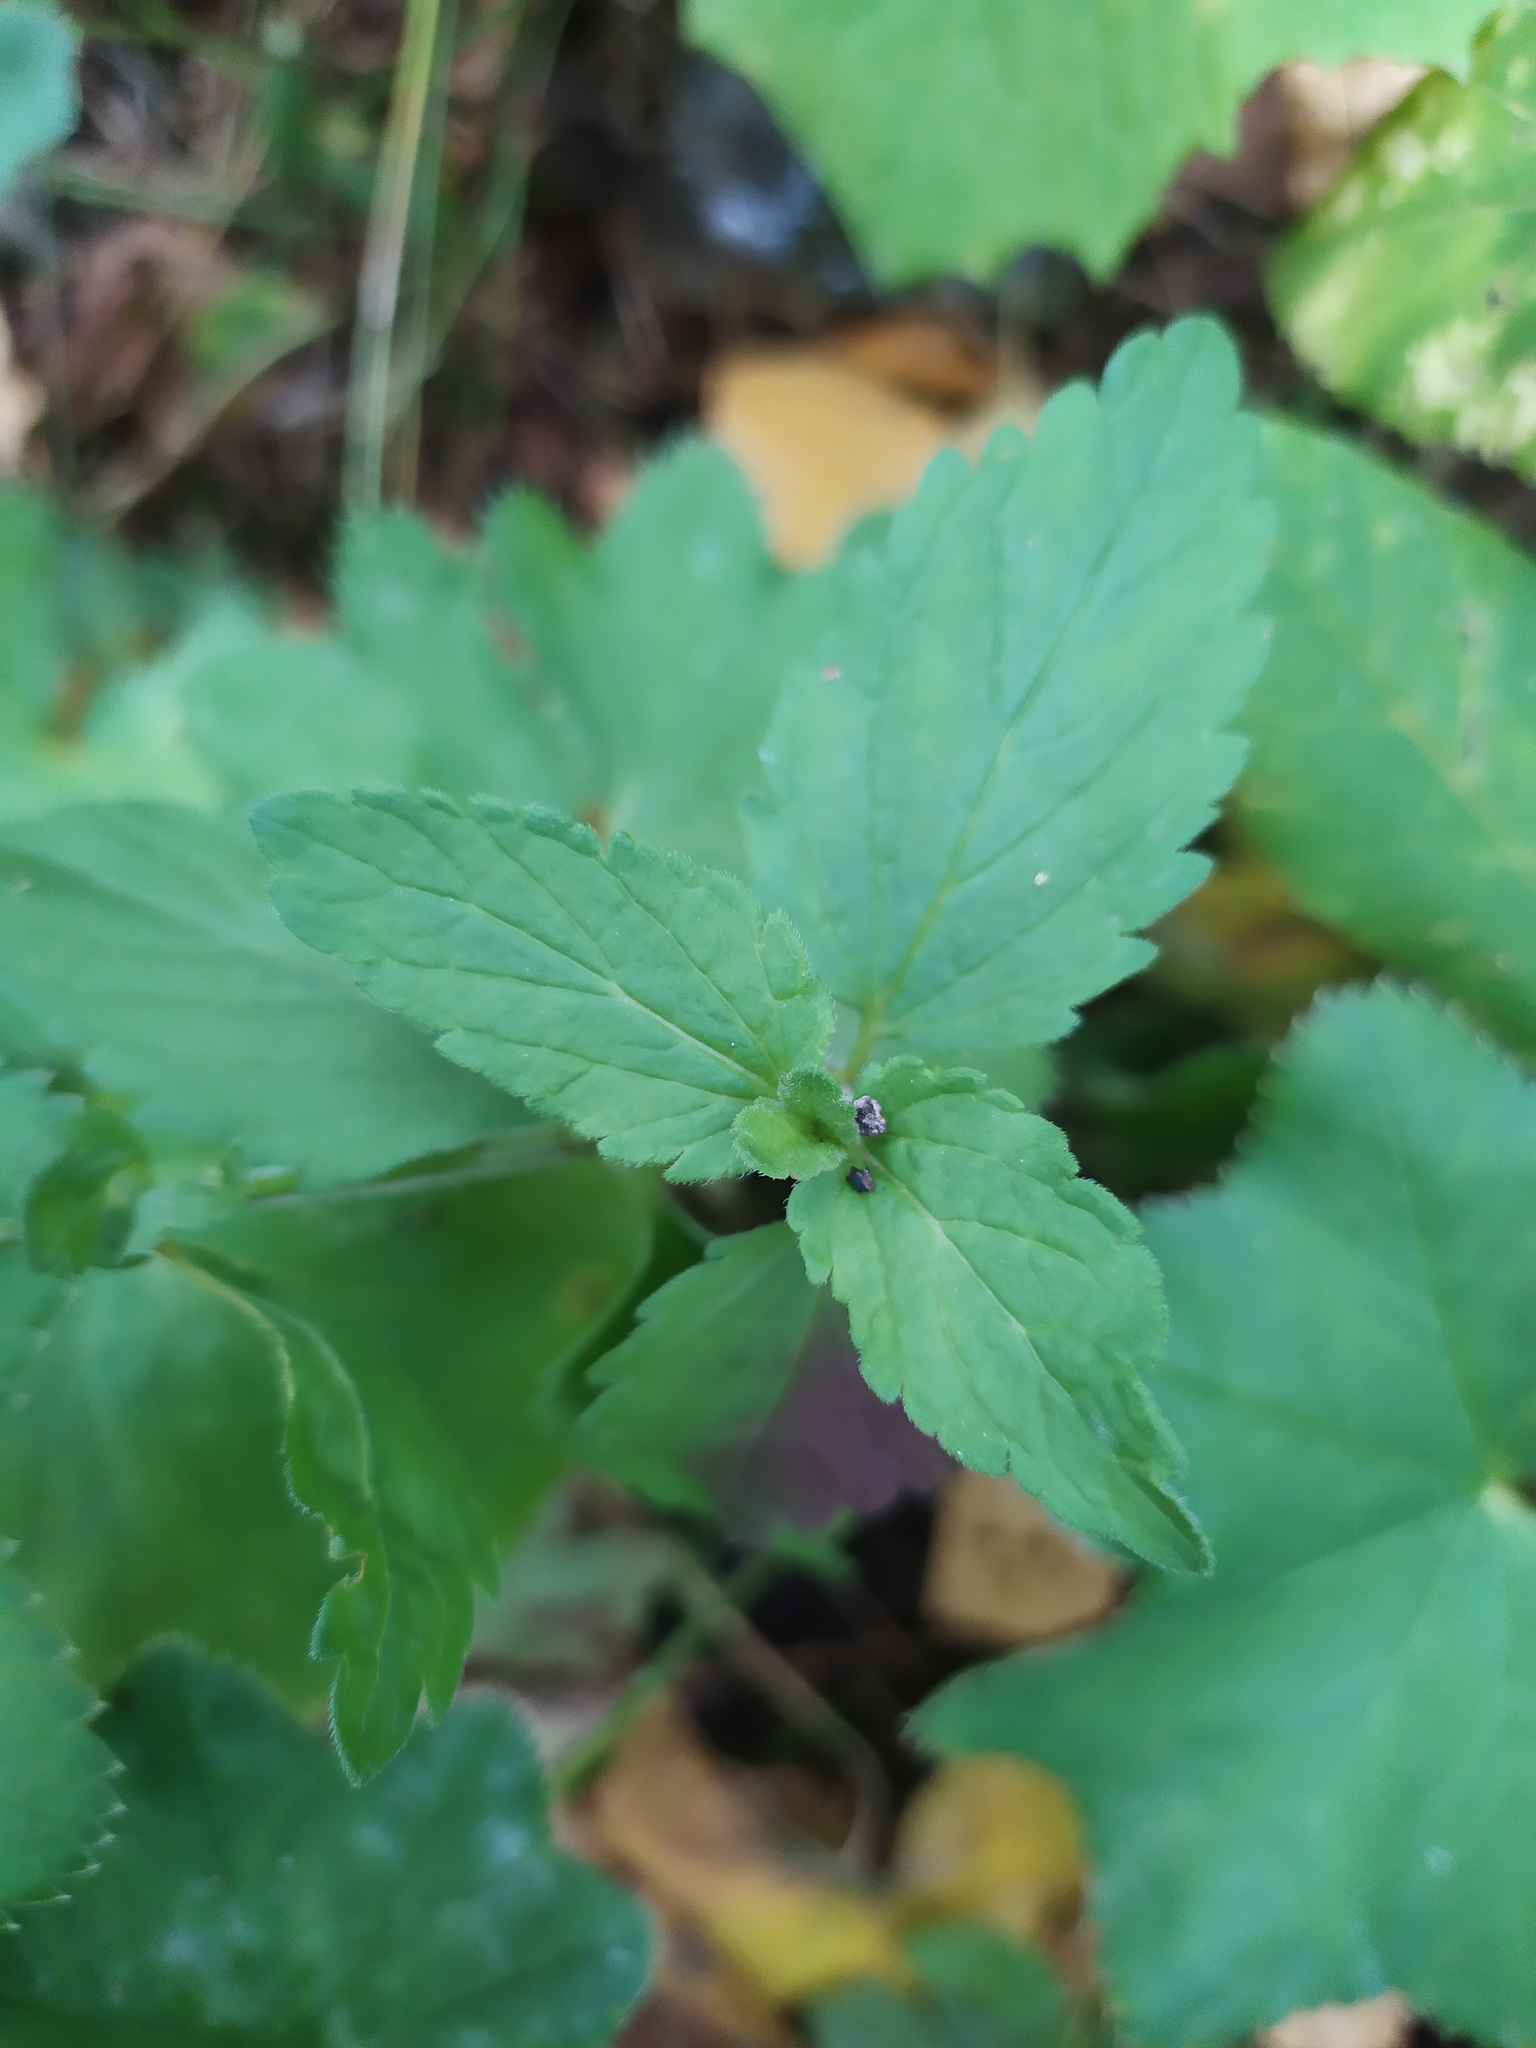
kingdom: Plantae
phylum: Tracheophyta
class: Magnoliopsida
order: Lamiales
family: Plantaginaceae
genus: Veronica
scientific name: Veronica chamaedrys
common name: Germander speedwell
